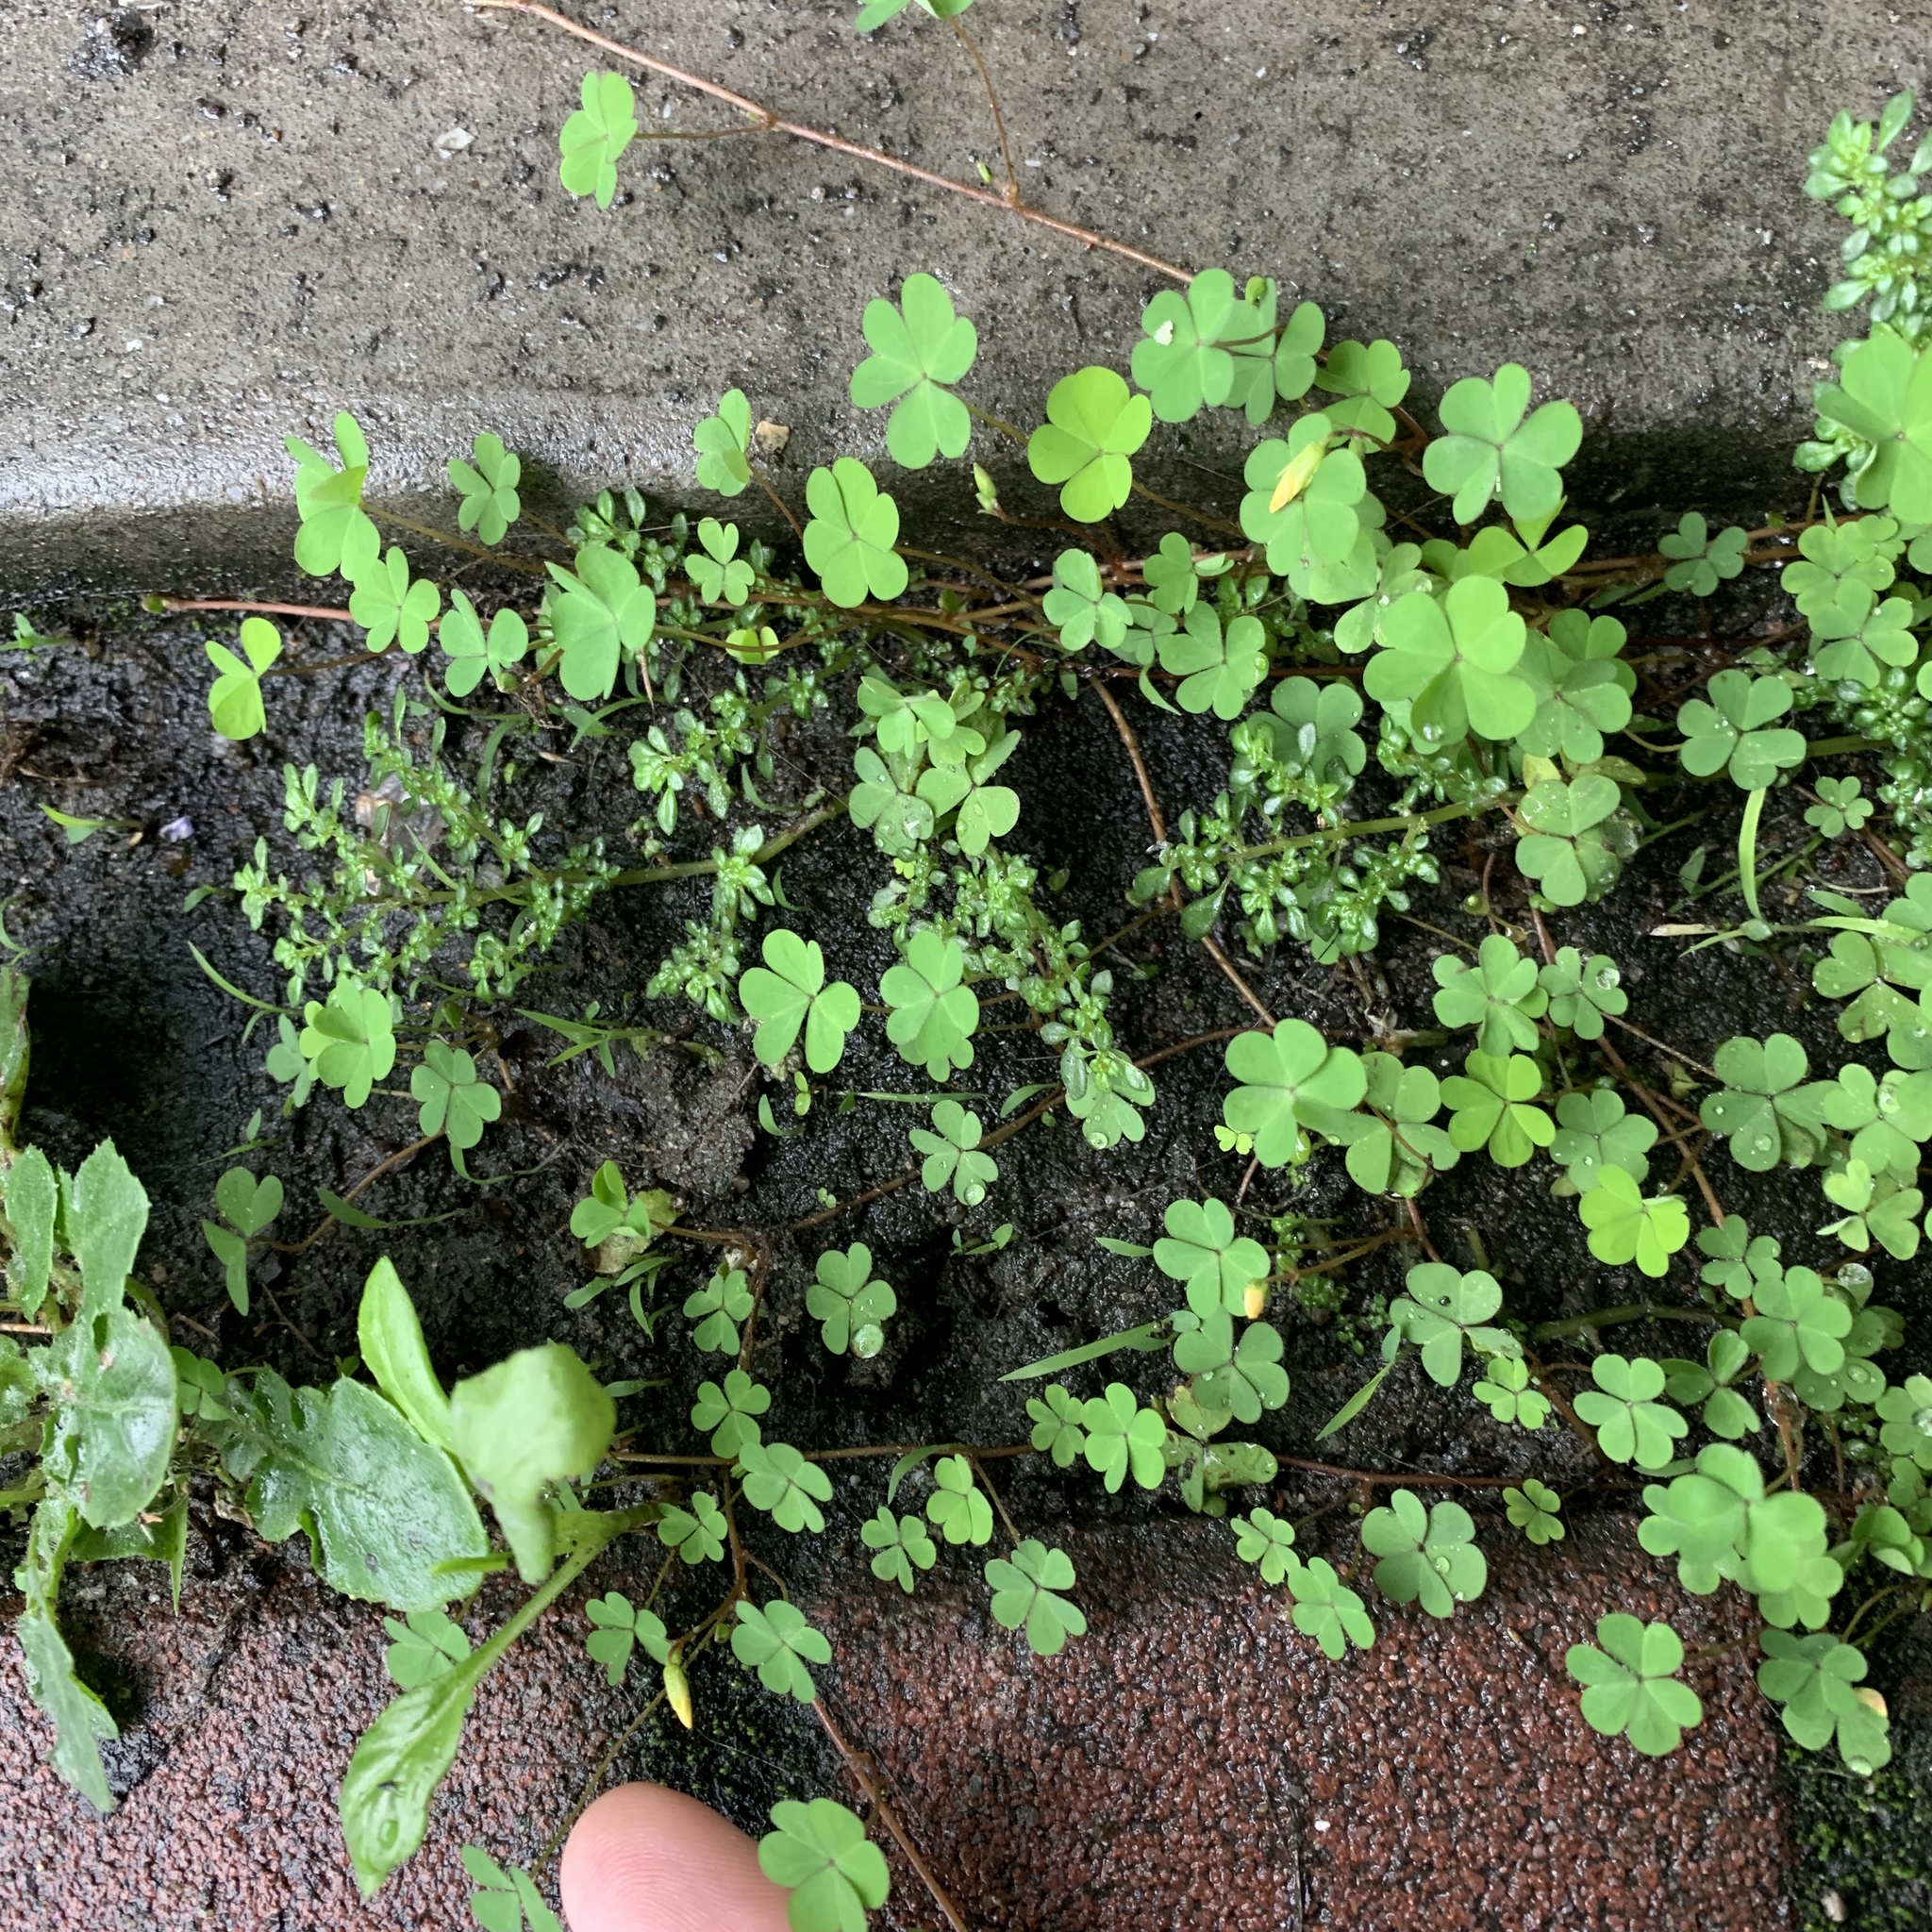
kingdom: Plantae
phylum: Tracheophyta
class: Magnoliopsida
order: Oxalidales
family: Oxalidaceae
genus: Oxalis
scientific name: Oxalis corniculata
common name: Procumbent yellow-sorrel
